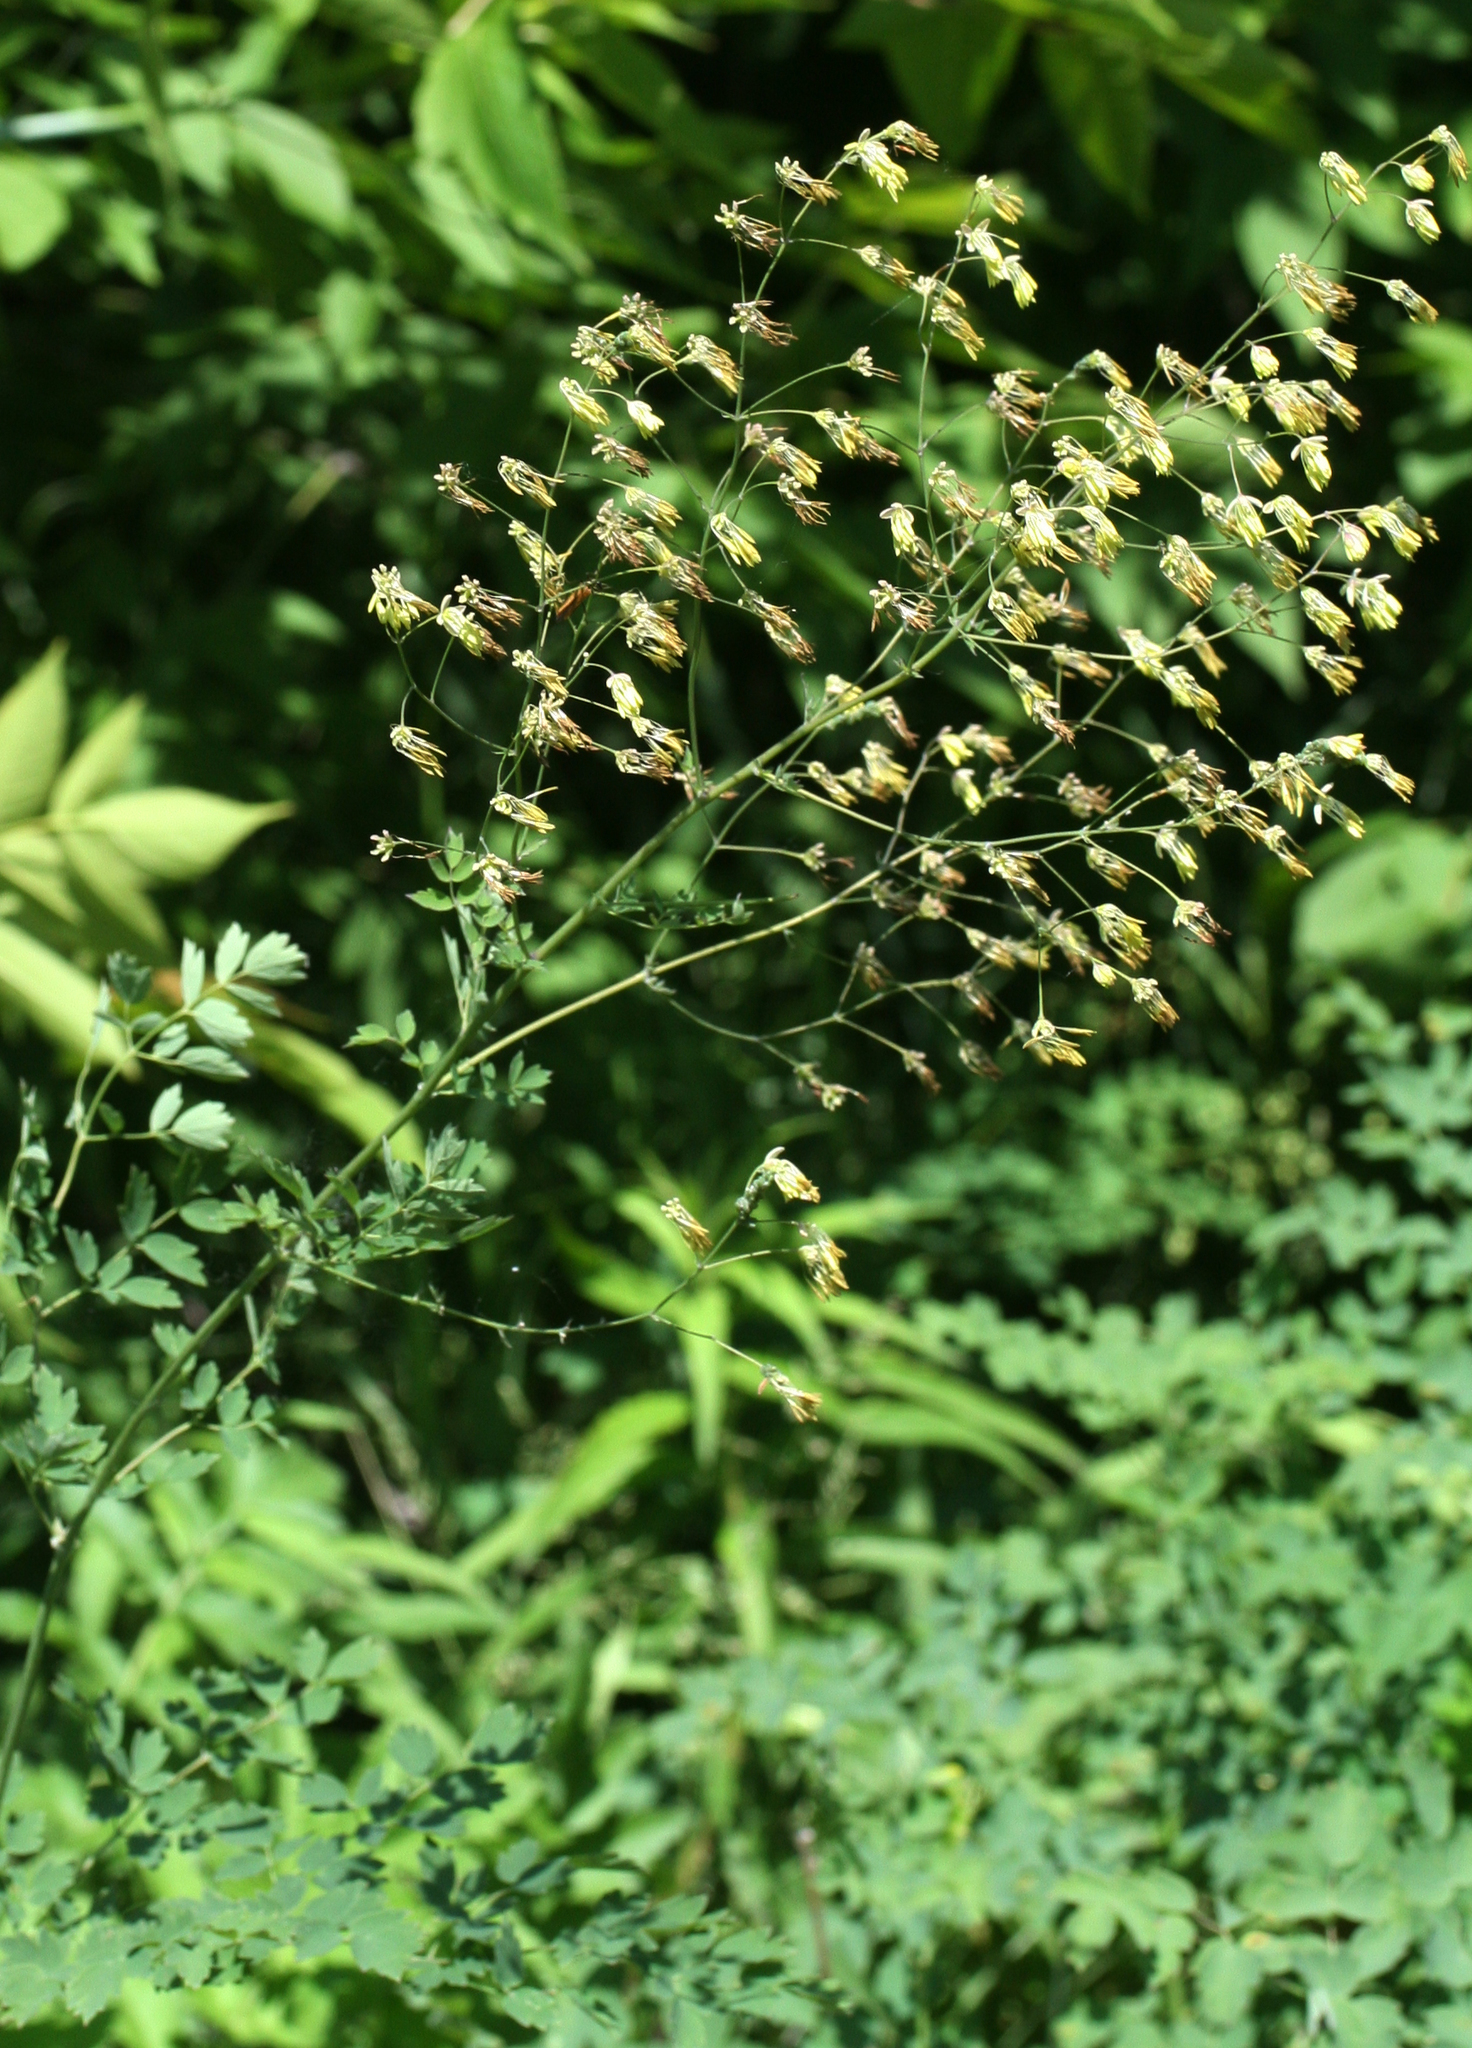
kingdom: Plantae
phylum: Tracheophyta
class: Magnoliopsida
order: Ranunculales
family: Ranunculaceae
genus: Thalictrum
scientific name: Thalictrum minus
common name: Lesser meadow-rue
